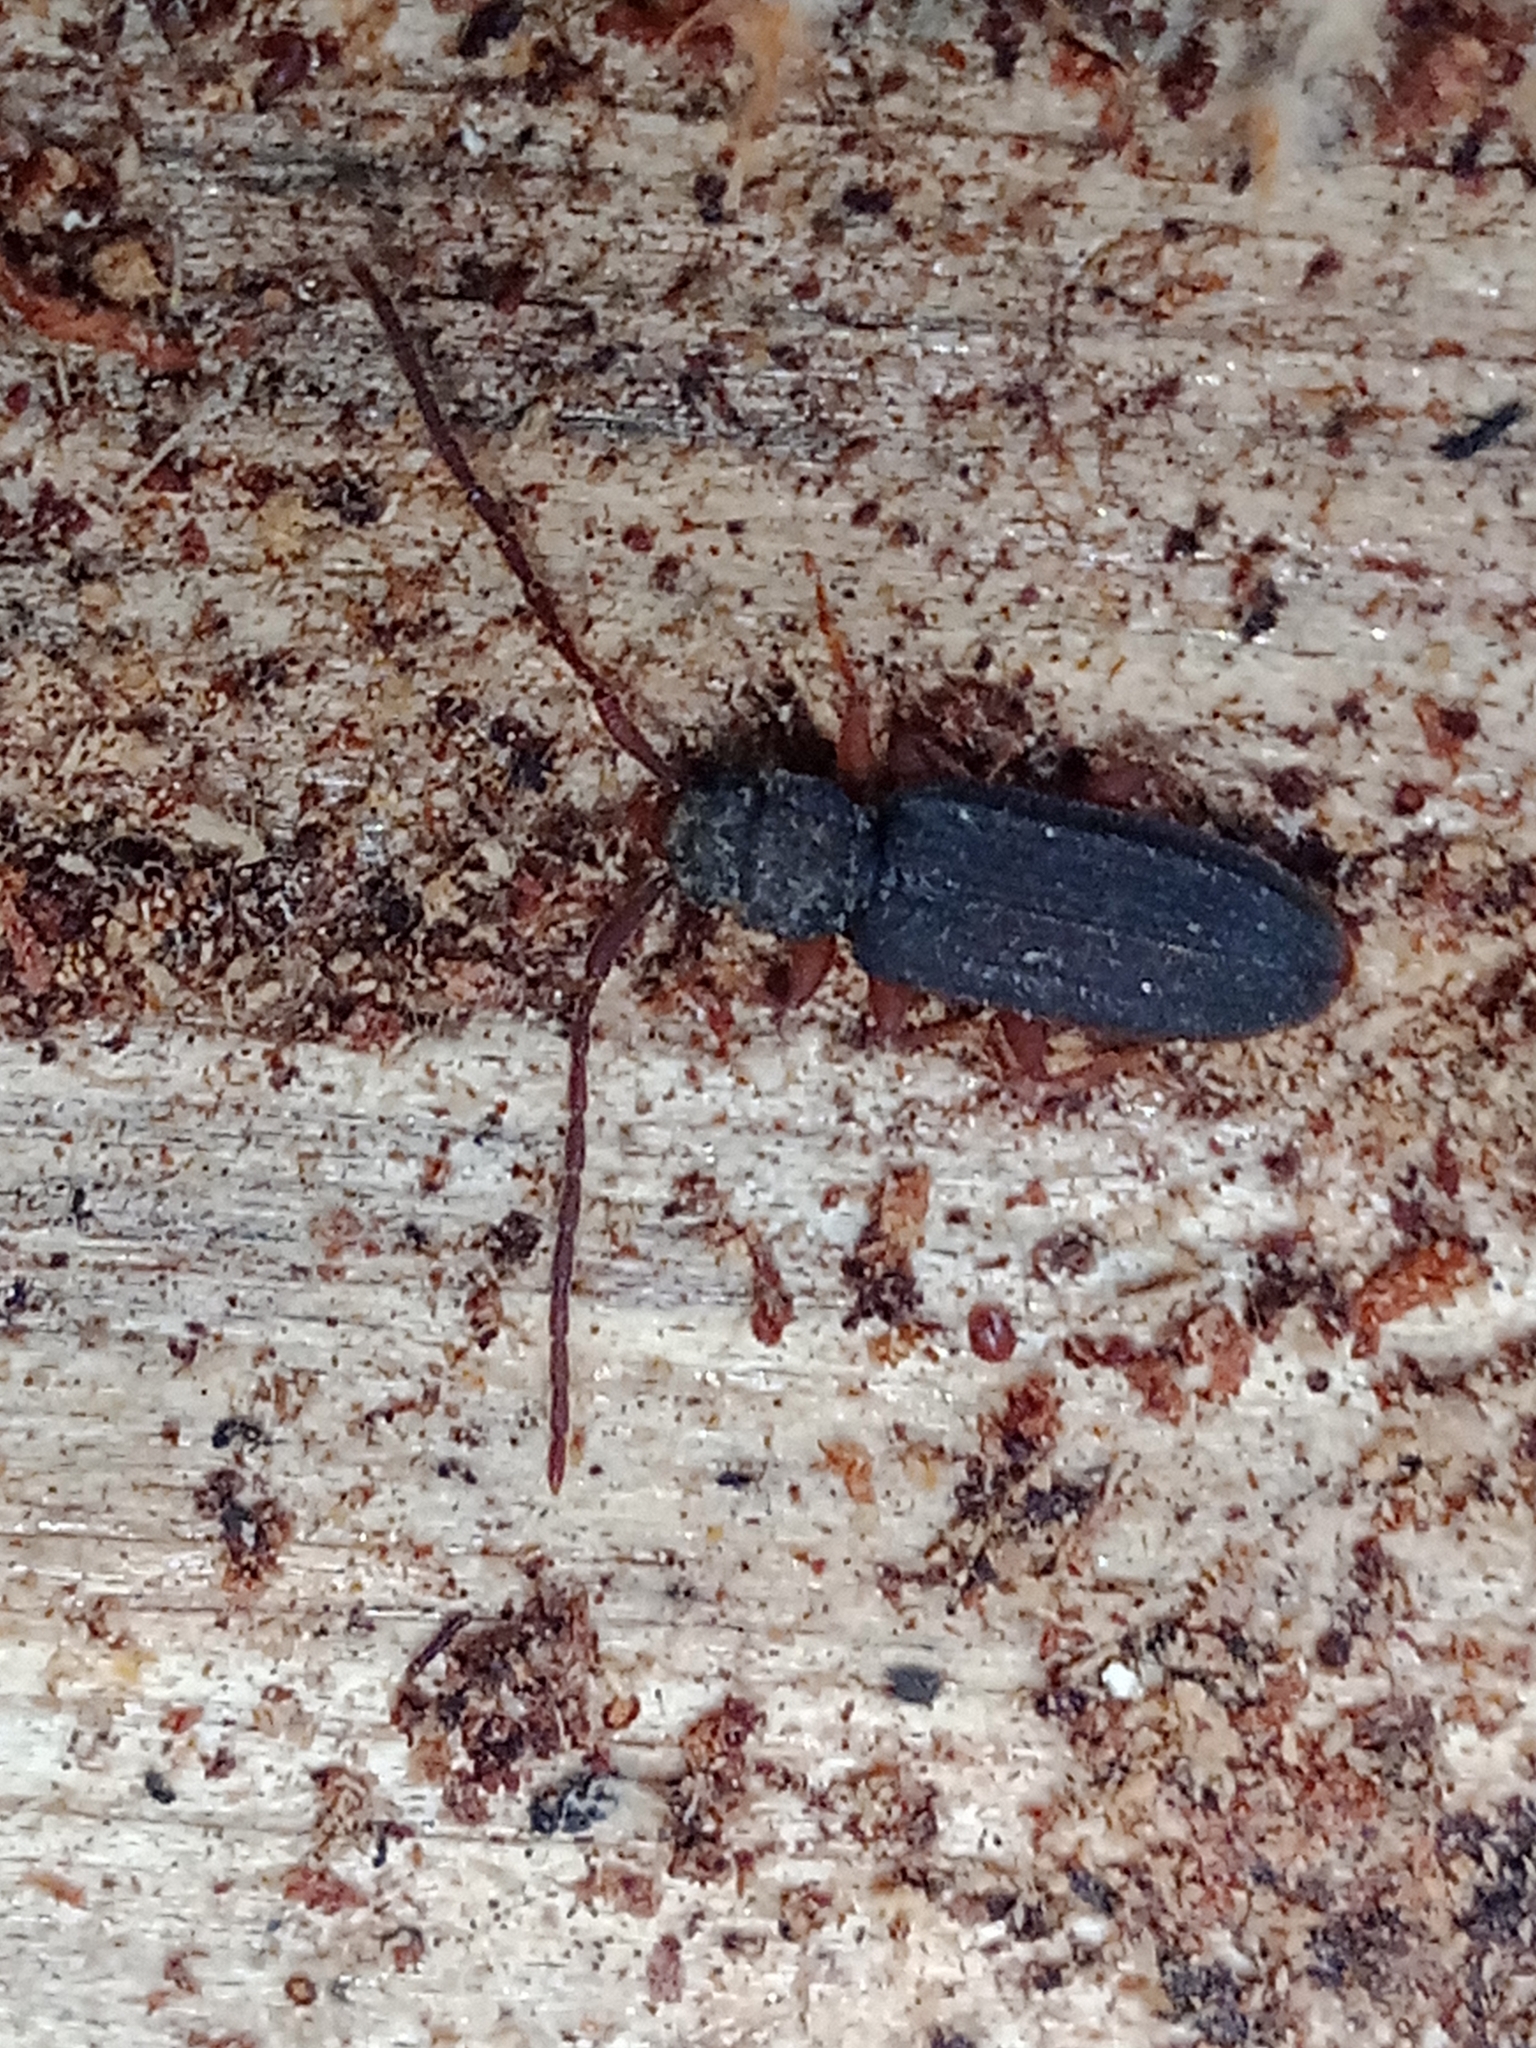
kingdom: Animalia
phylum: Arthropoda
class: Insecta
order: Coleoptera
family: Silvanidae
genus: Uleiota
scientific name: Uleiota planatus
